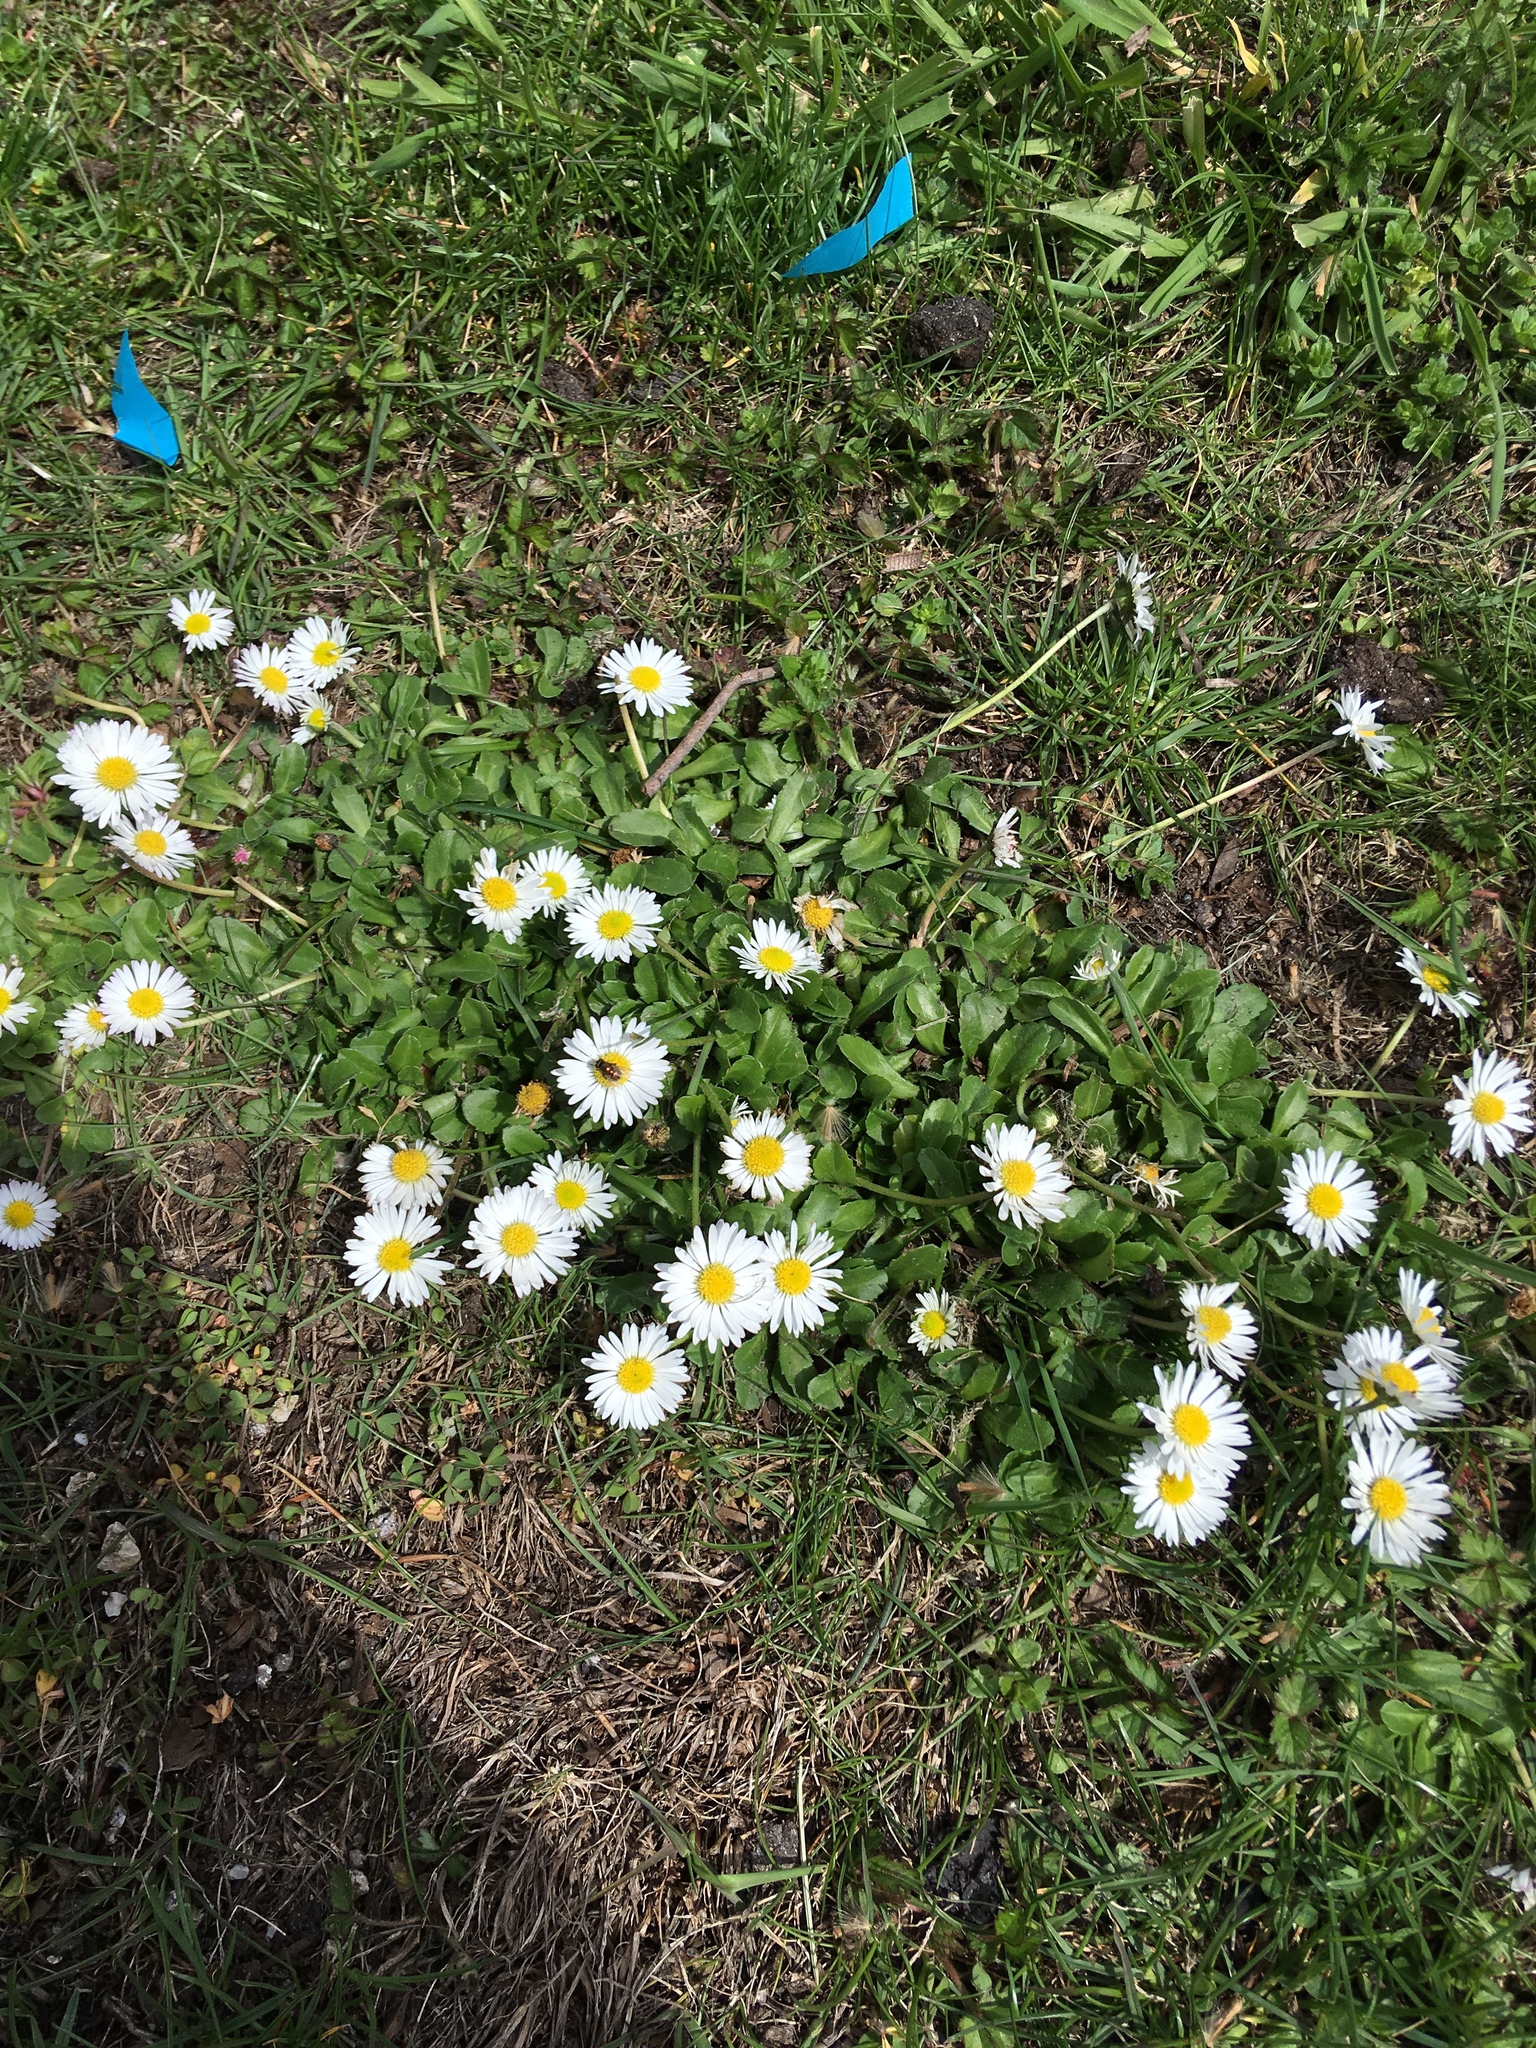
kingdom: Plantae
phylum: Tracheophyta
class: Magnoliopsida
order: Asterales
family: Asteraceae
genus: Bellis
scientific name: Bellis perennis
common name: Lawndaisy
